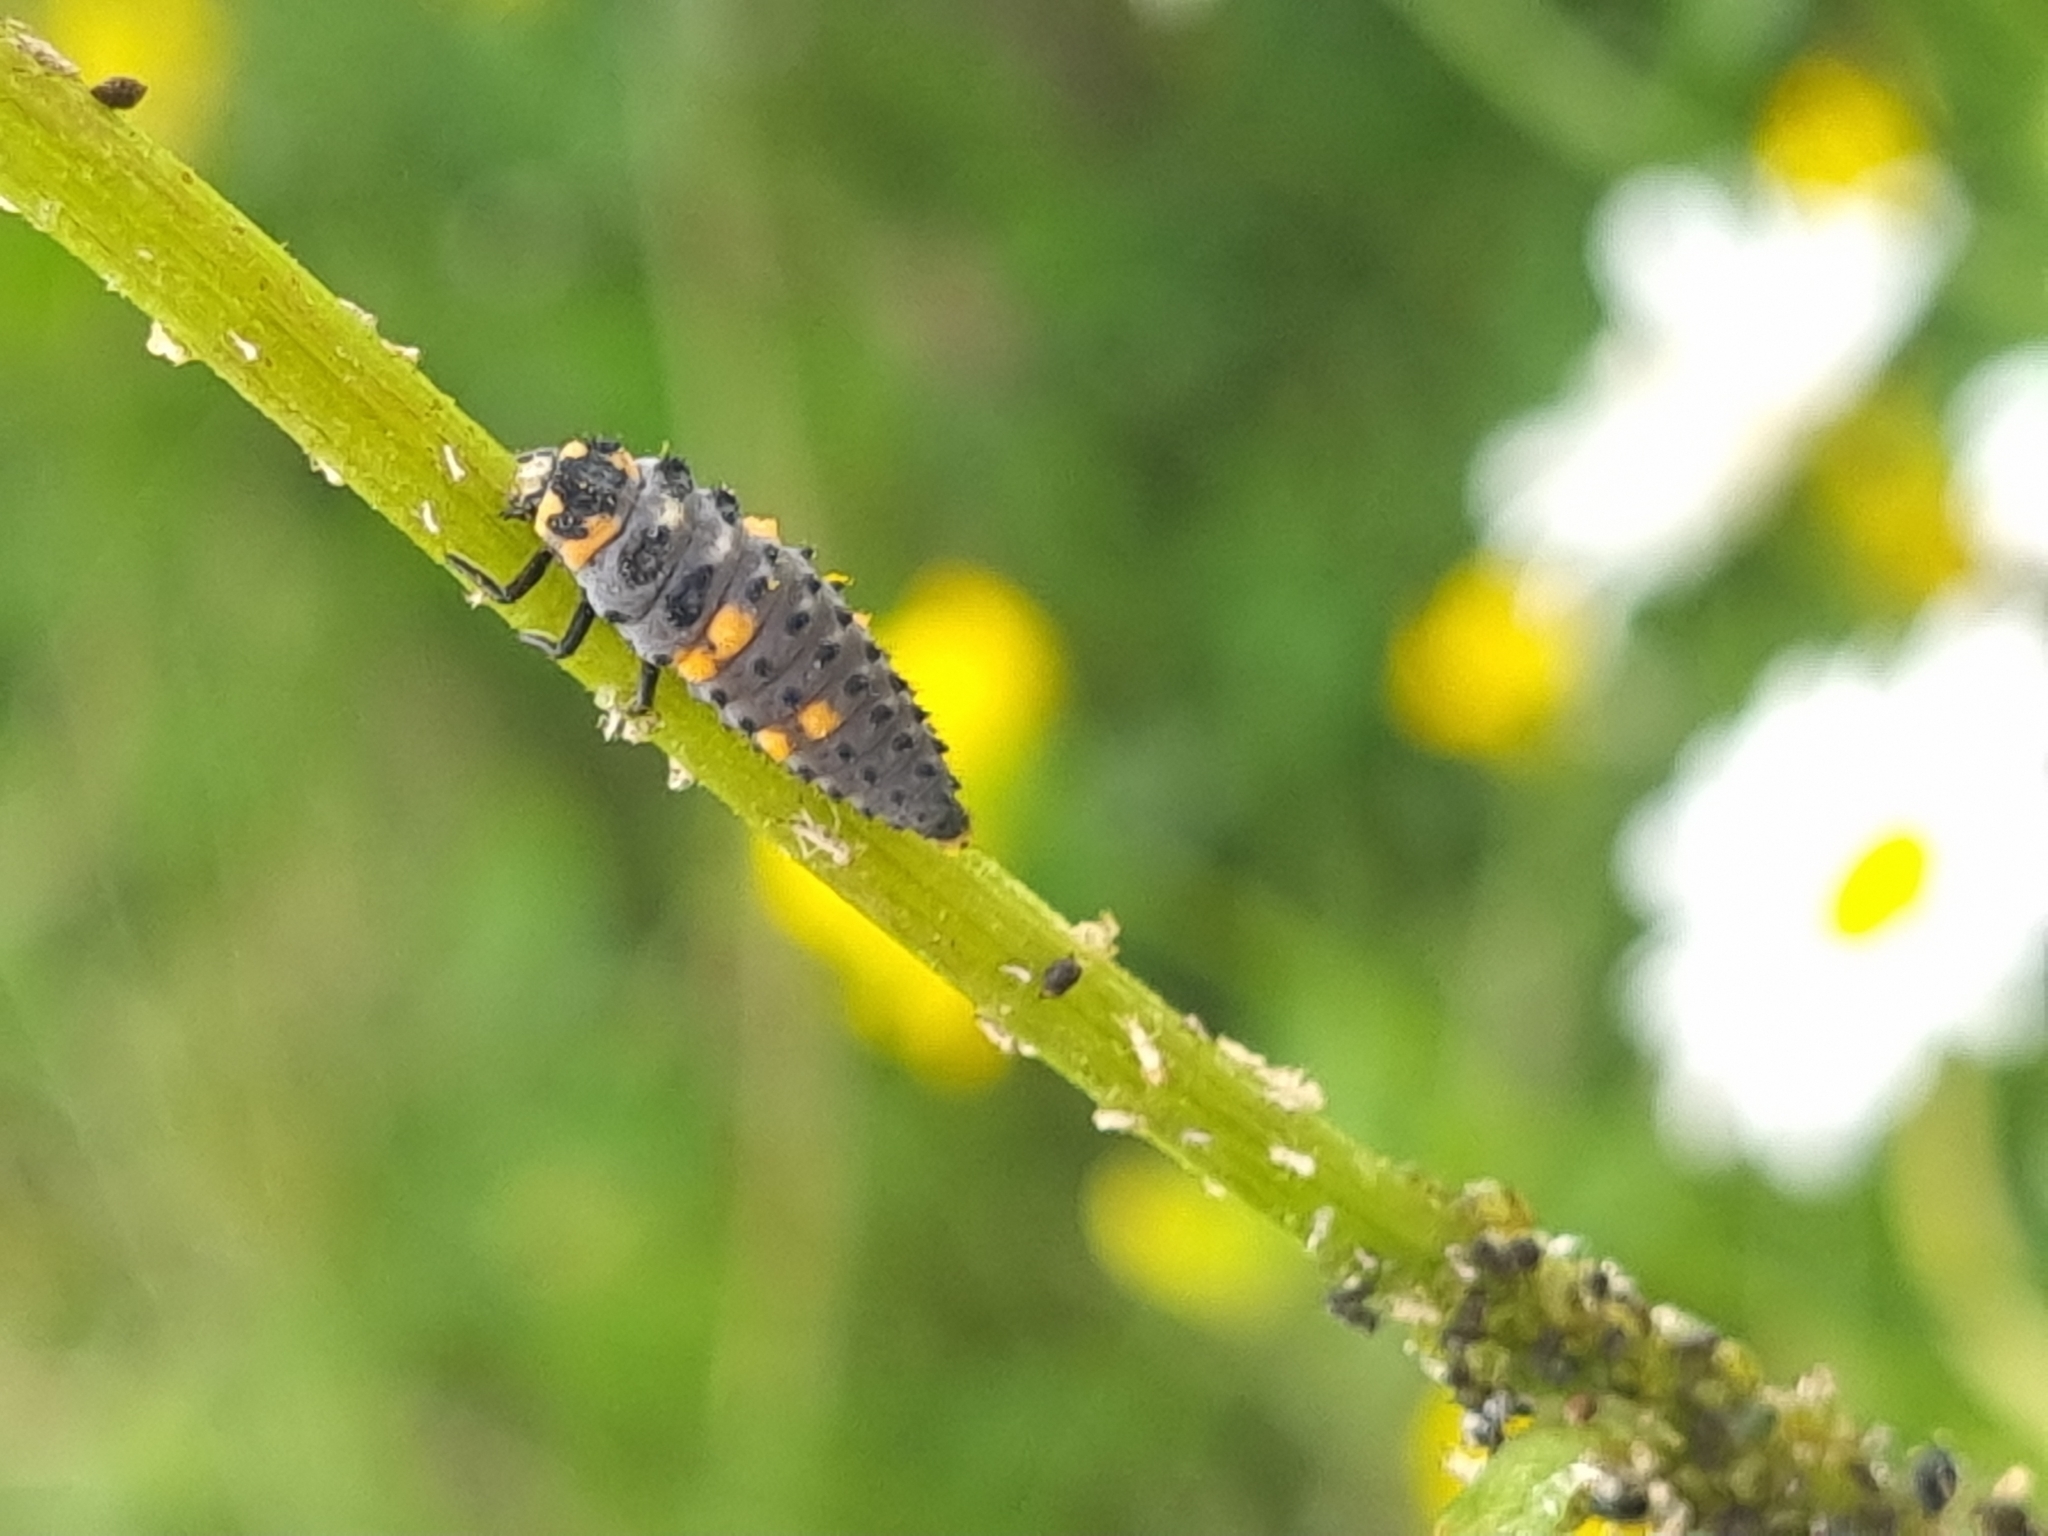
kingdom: Animalia
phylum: Arthropoda
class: Insecta
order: Coleoptera
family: Coccinellidae
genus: Coccinella
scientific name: Coccinella septempunctata
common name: Sevenspotted lady beetle
